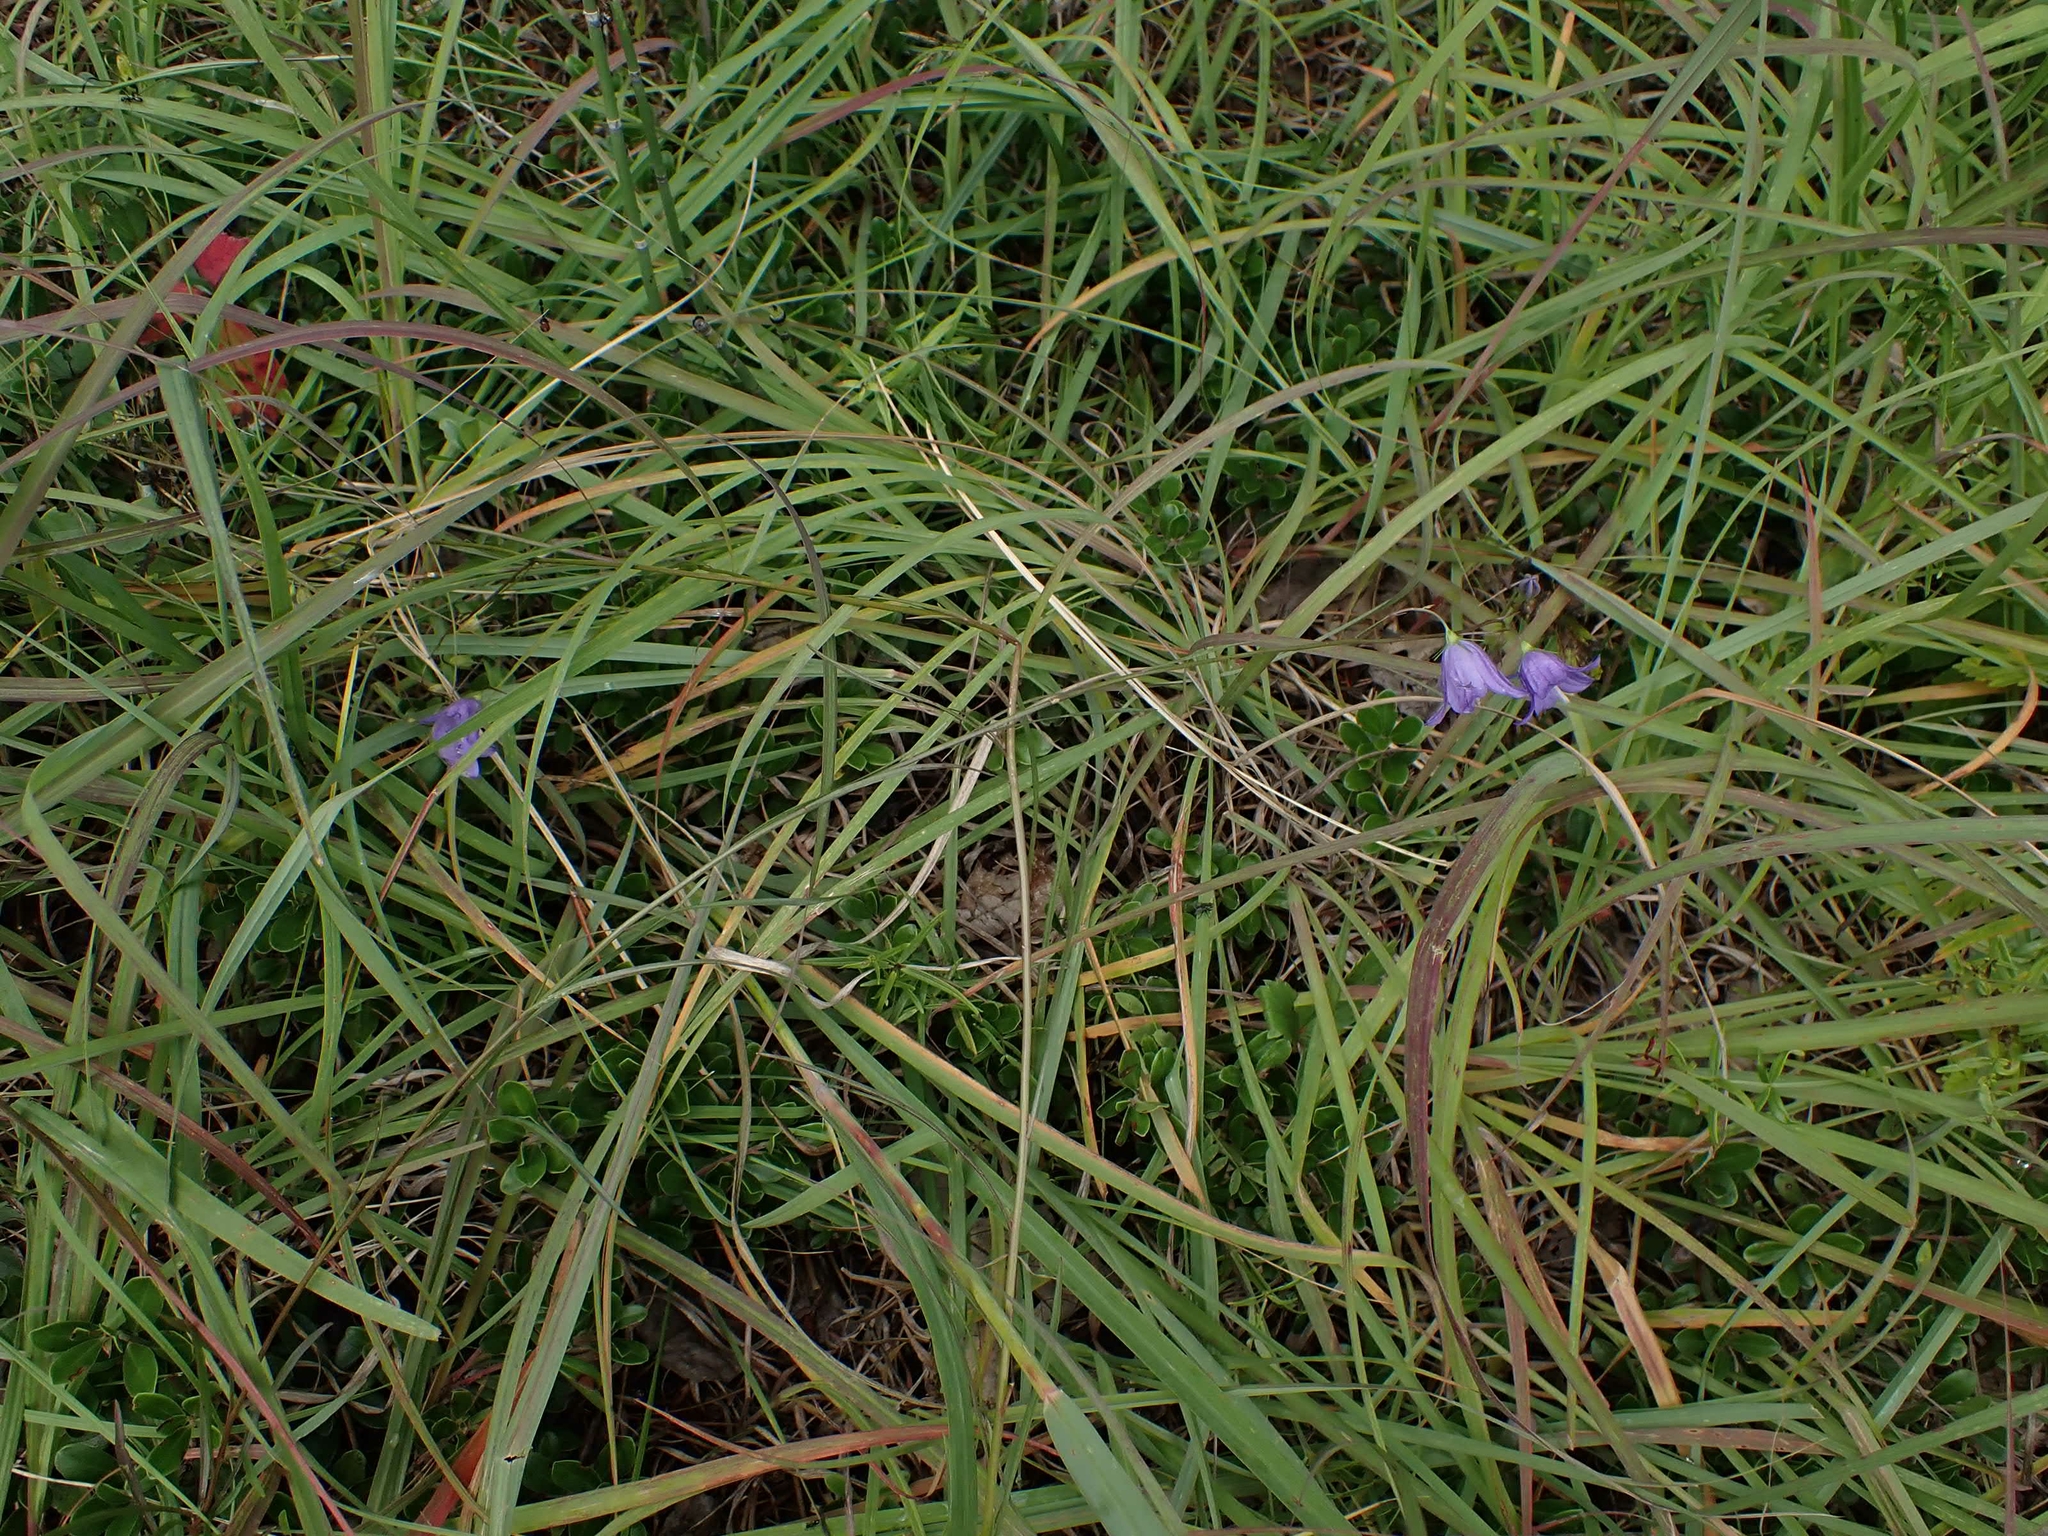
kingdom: Plantae
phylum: Tracheophyta
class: Magnoliopsida
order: Asterales
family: Campanulaceae
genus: Campanula
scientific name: Campanula petiolata
